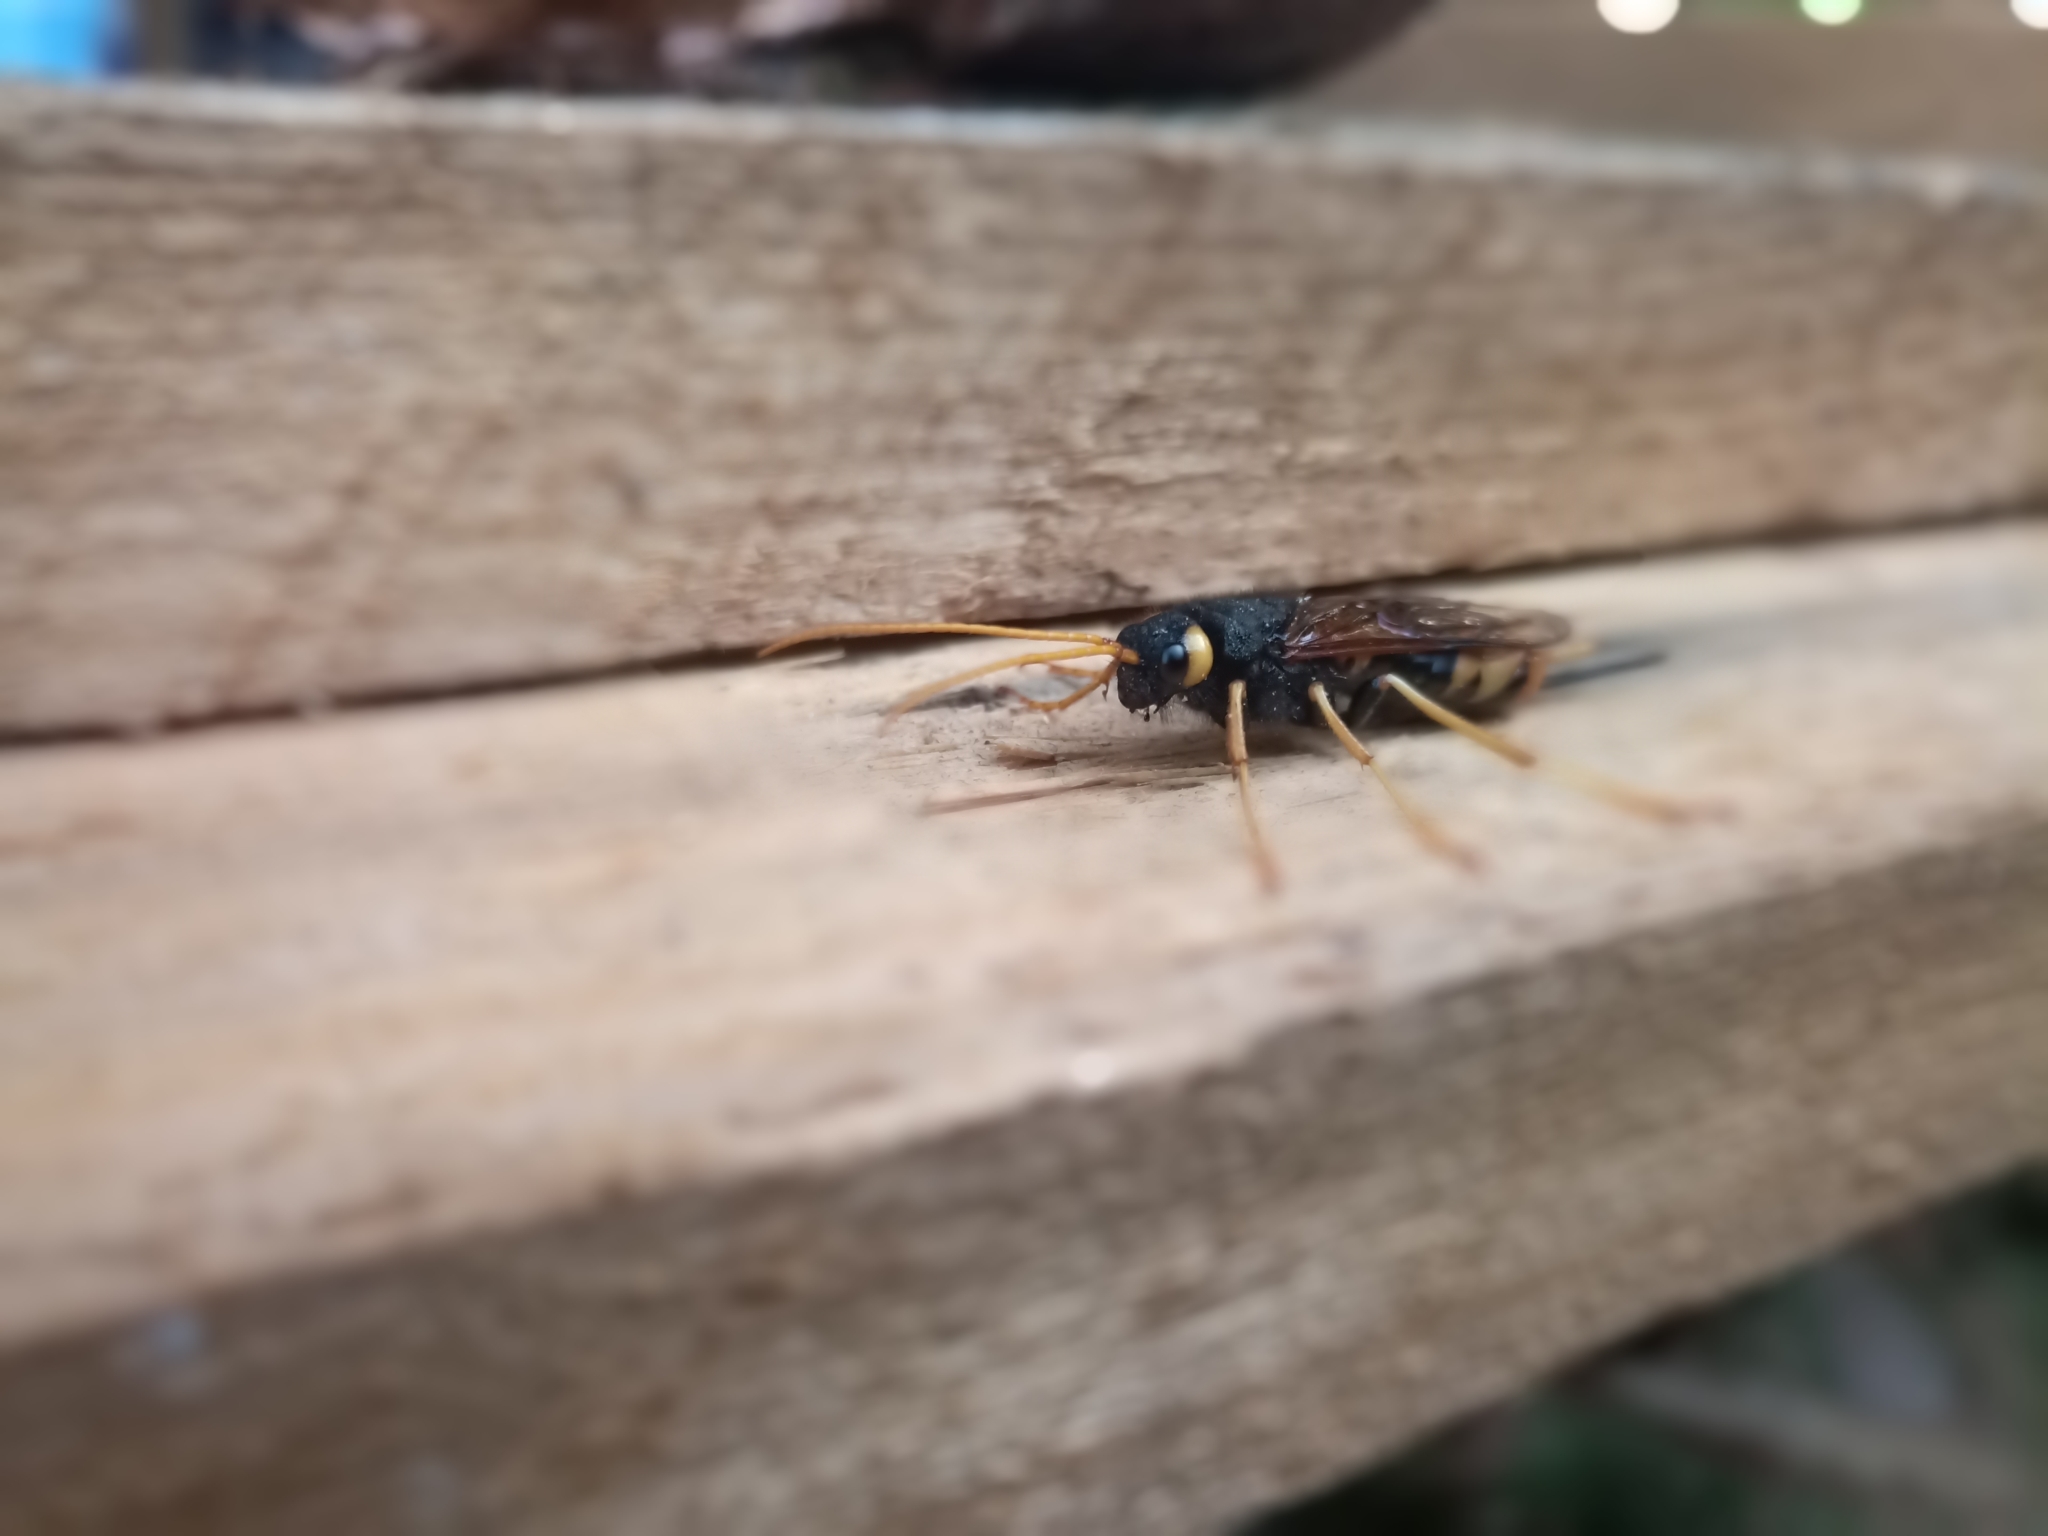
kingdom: Animalia
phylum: Arthropoda
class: Insecta
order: Hymenoptera
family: Siricidae
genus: Urocerus
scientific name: Urocerus gigas
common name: Giant woodwasp
